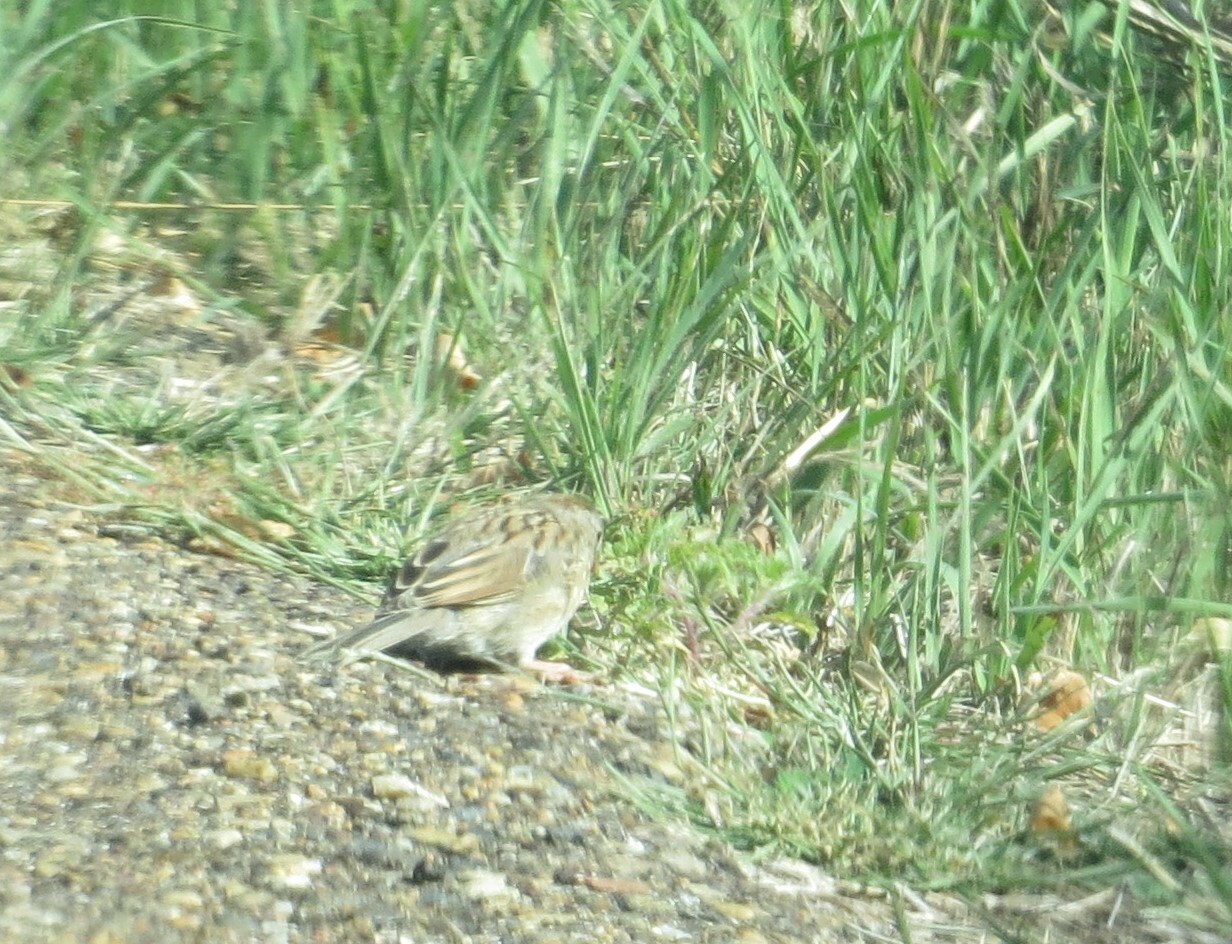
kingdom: Animalia
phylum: Chordata
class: Aves
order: Passeriformes
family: Passerellidae
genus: Spizella
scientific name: Spizella pusilla
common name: Field sparrow
